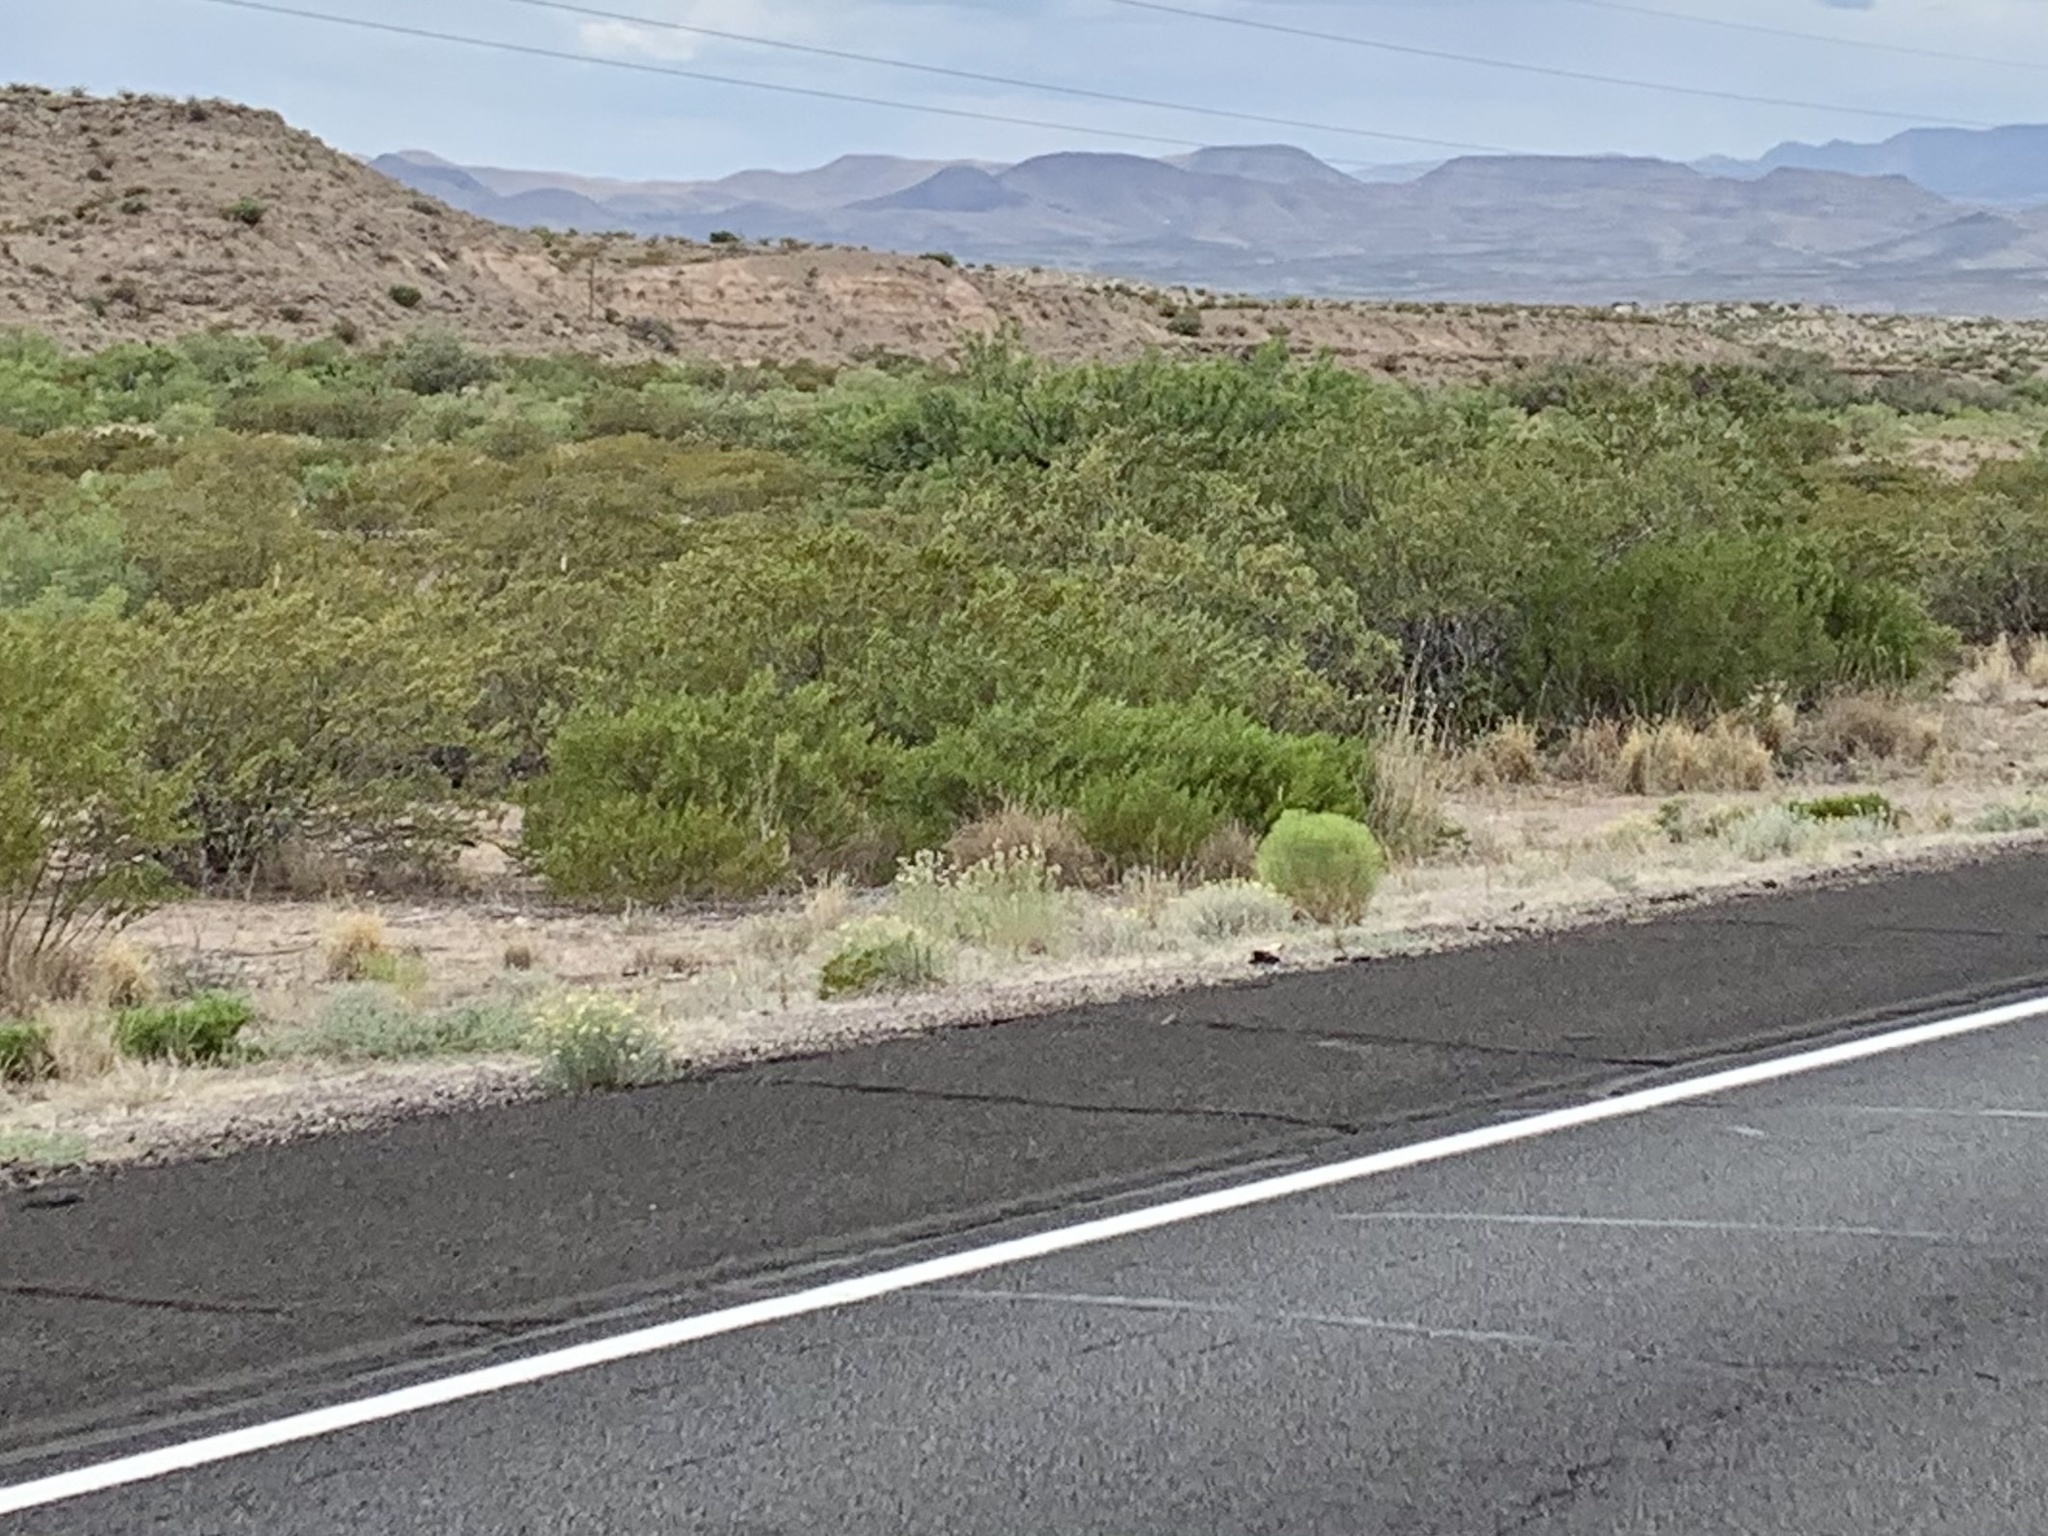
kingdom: Plantae
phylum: Tracheophyta
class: Magnoliopsida
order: Zygophyllales
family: Zygophyllaceae
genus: Larrea
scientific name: Larrea tridentata
